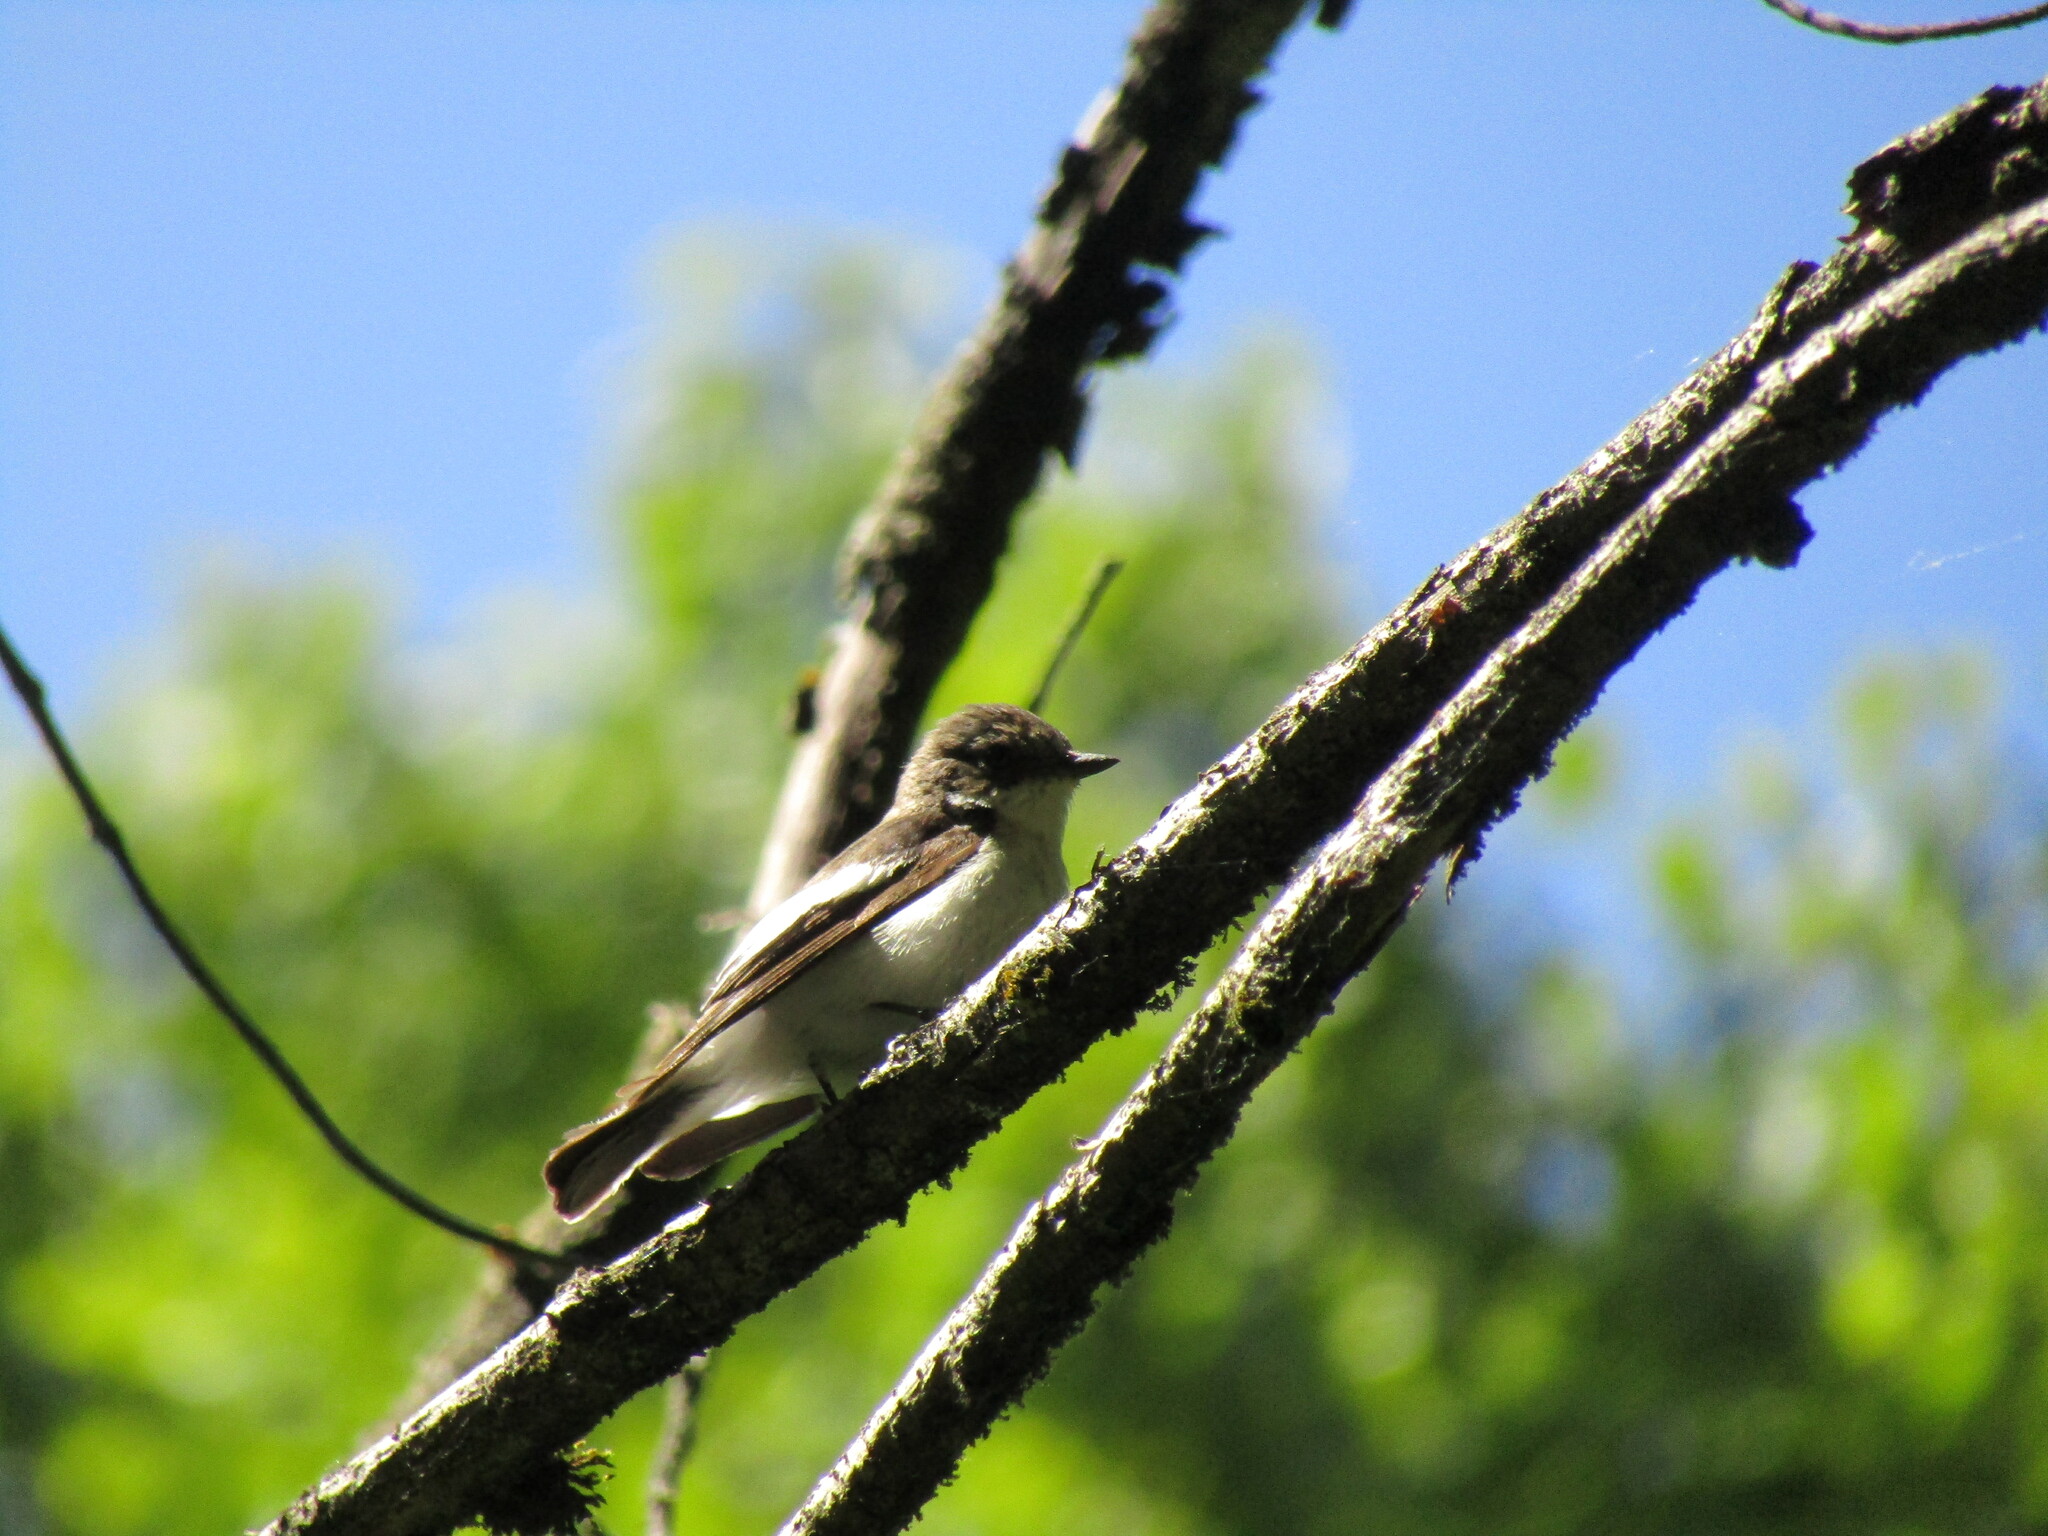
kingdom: Animalia
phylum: Chordata
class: Aves
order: Passeriformes
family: Muscicapidae
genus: Ficedula
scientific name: Ficedula hypoleuca
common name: European pied flycatcher
